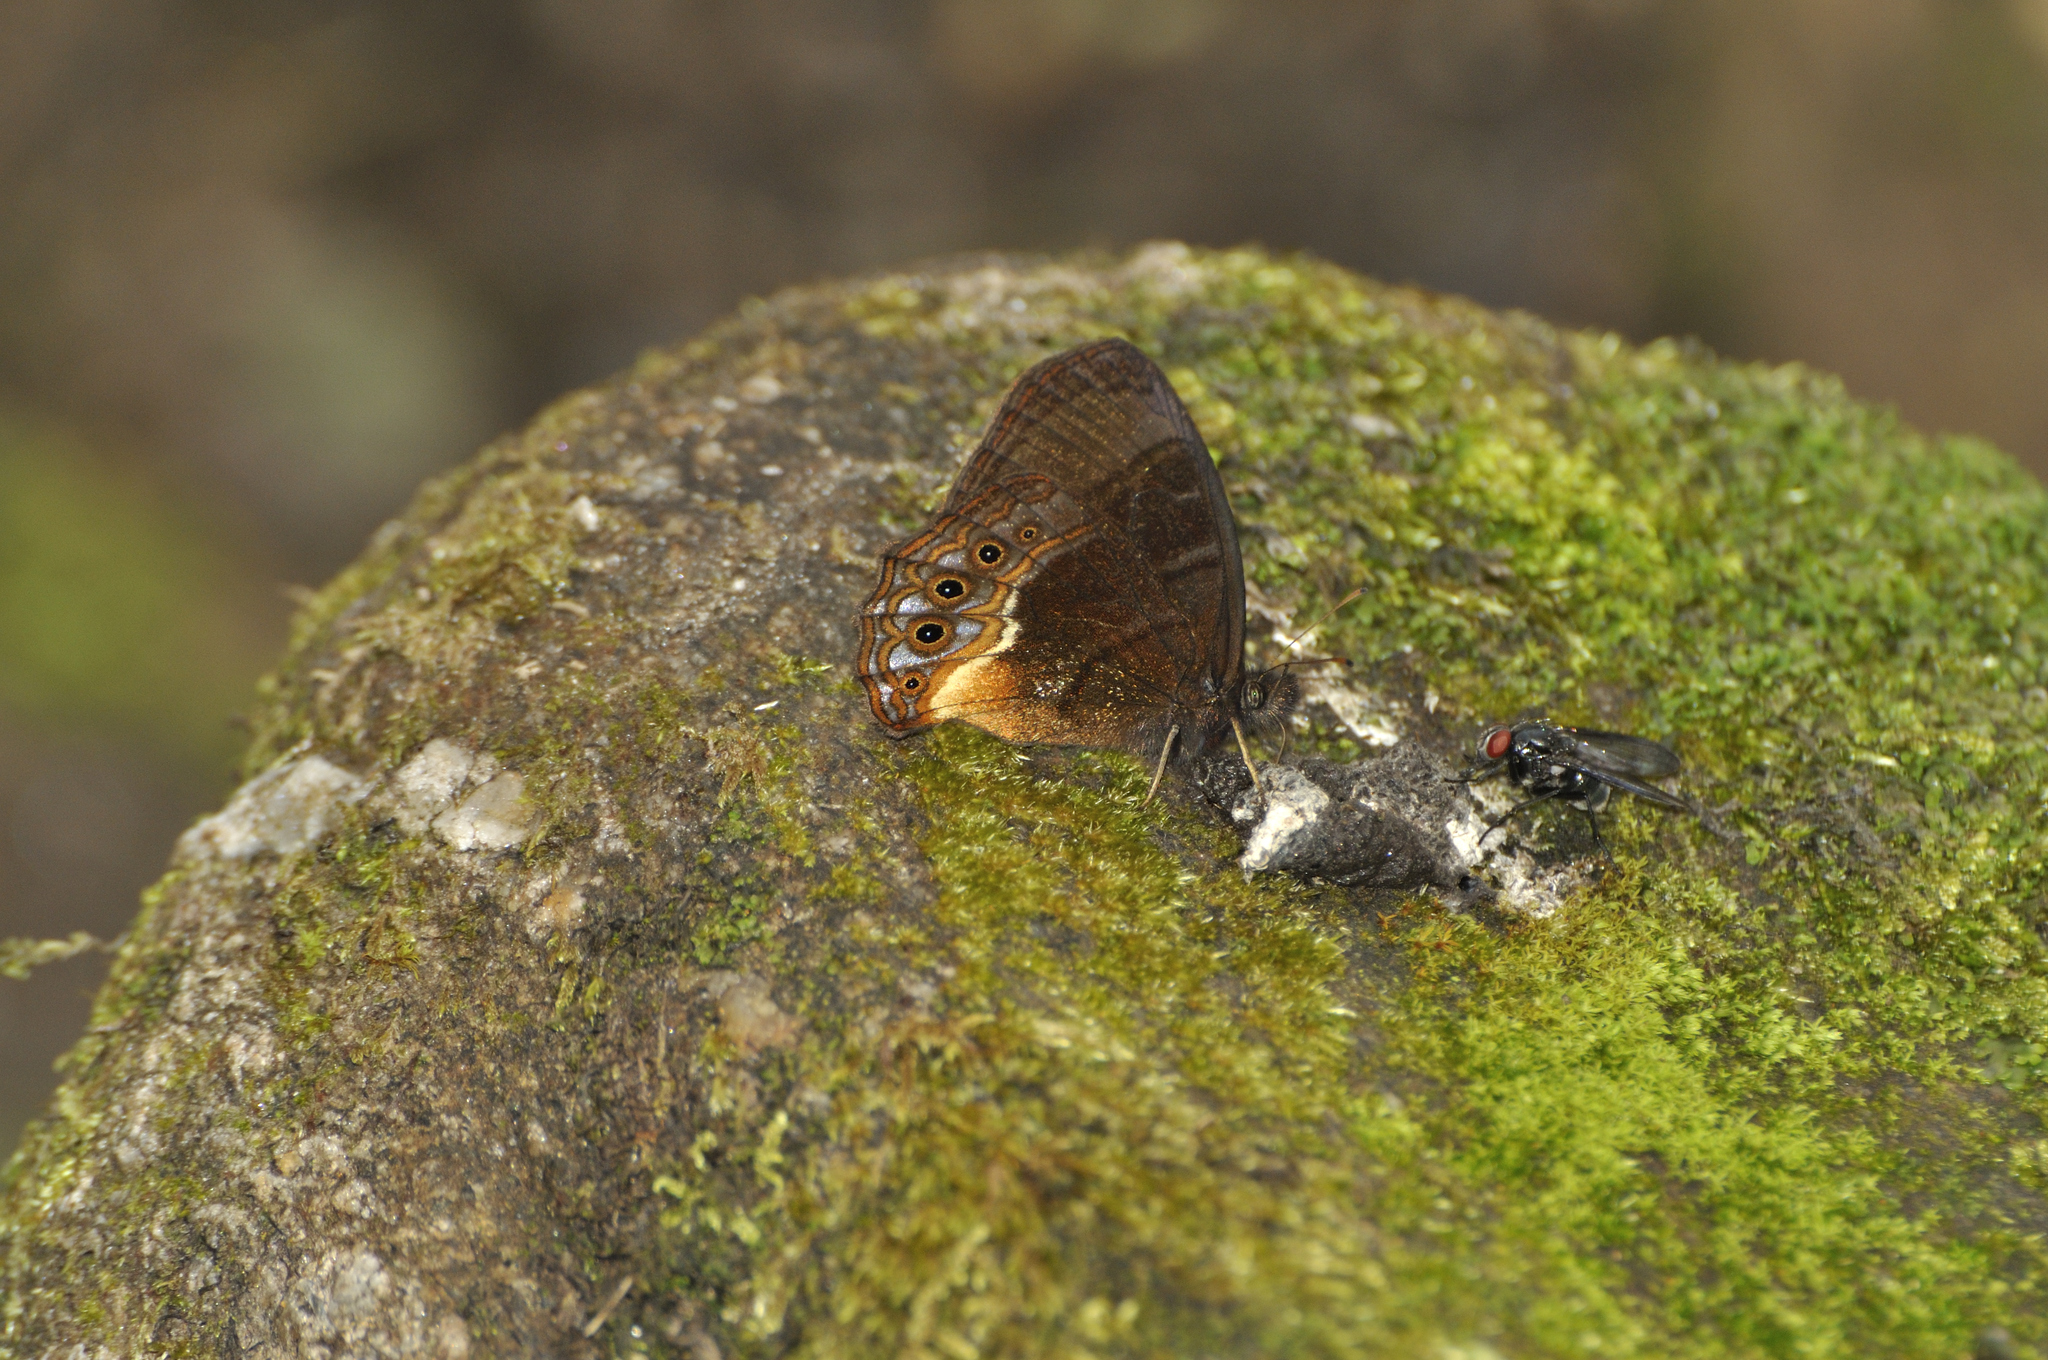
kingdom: Animalia
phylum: Arthropoda
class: Insecta
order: Lepidoptera
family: Nymphalidae
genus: Eretris
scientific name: Eretris porphyria
